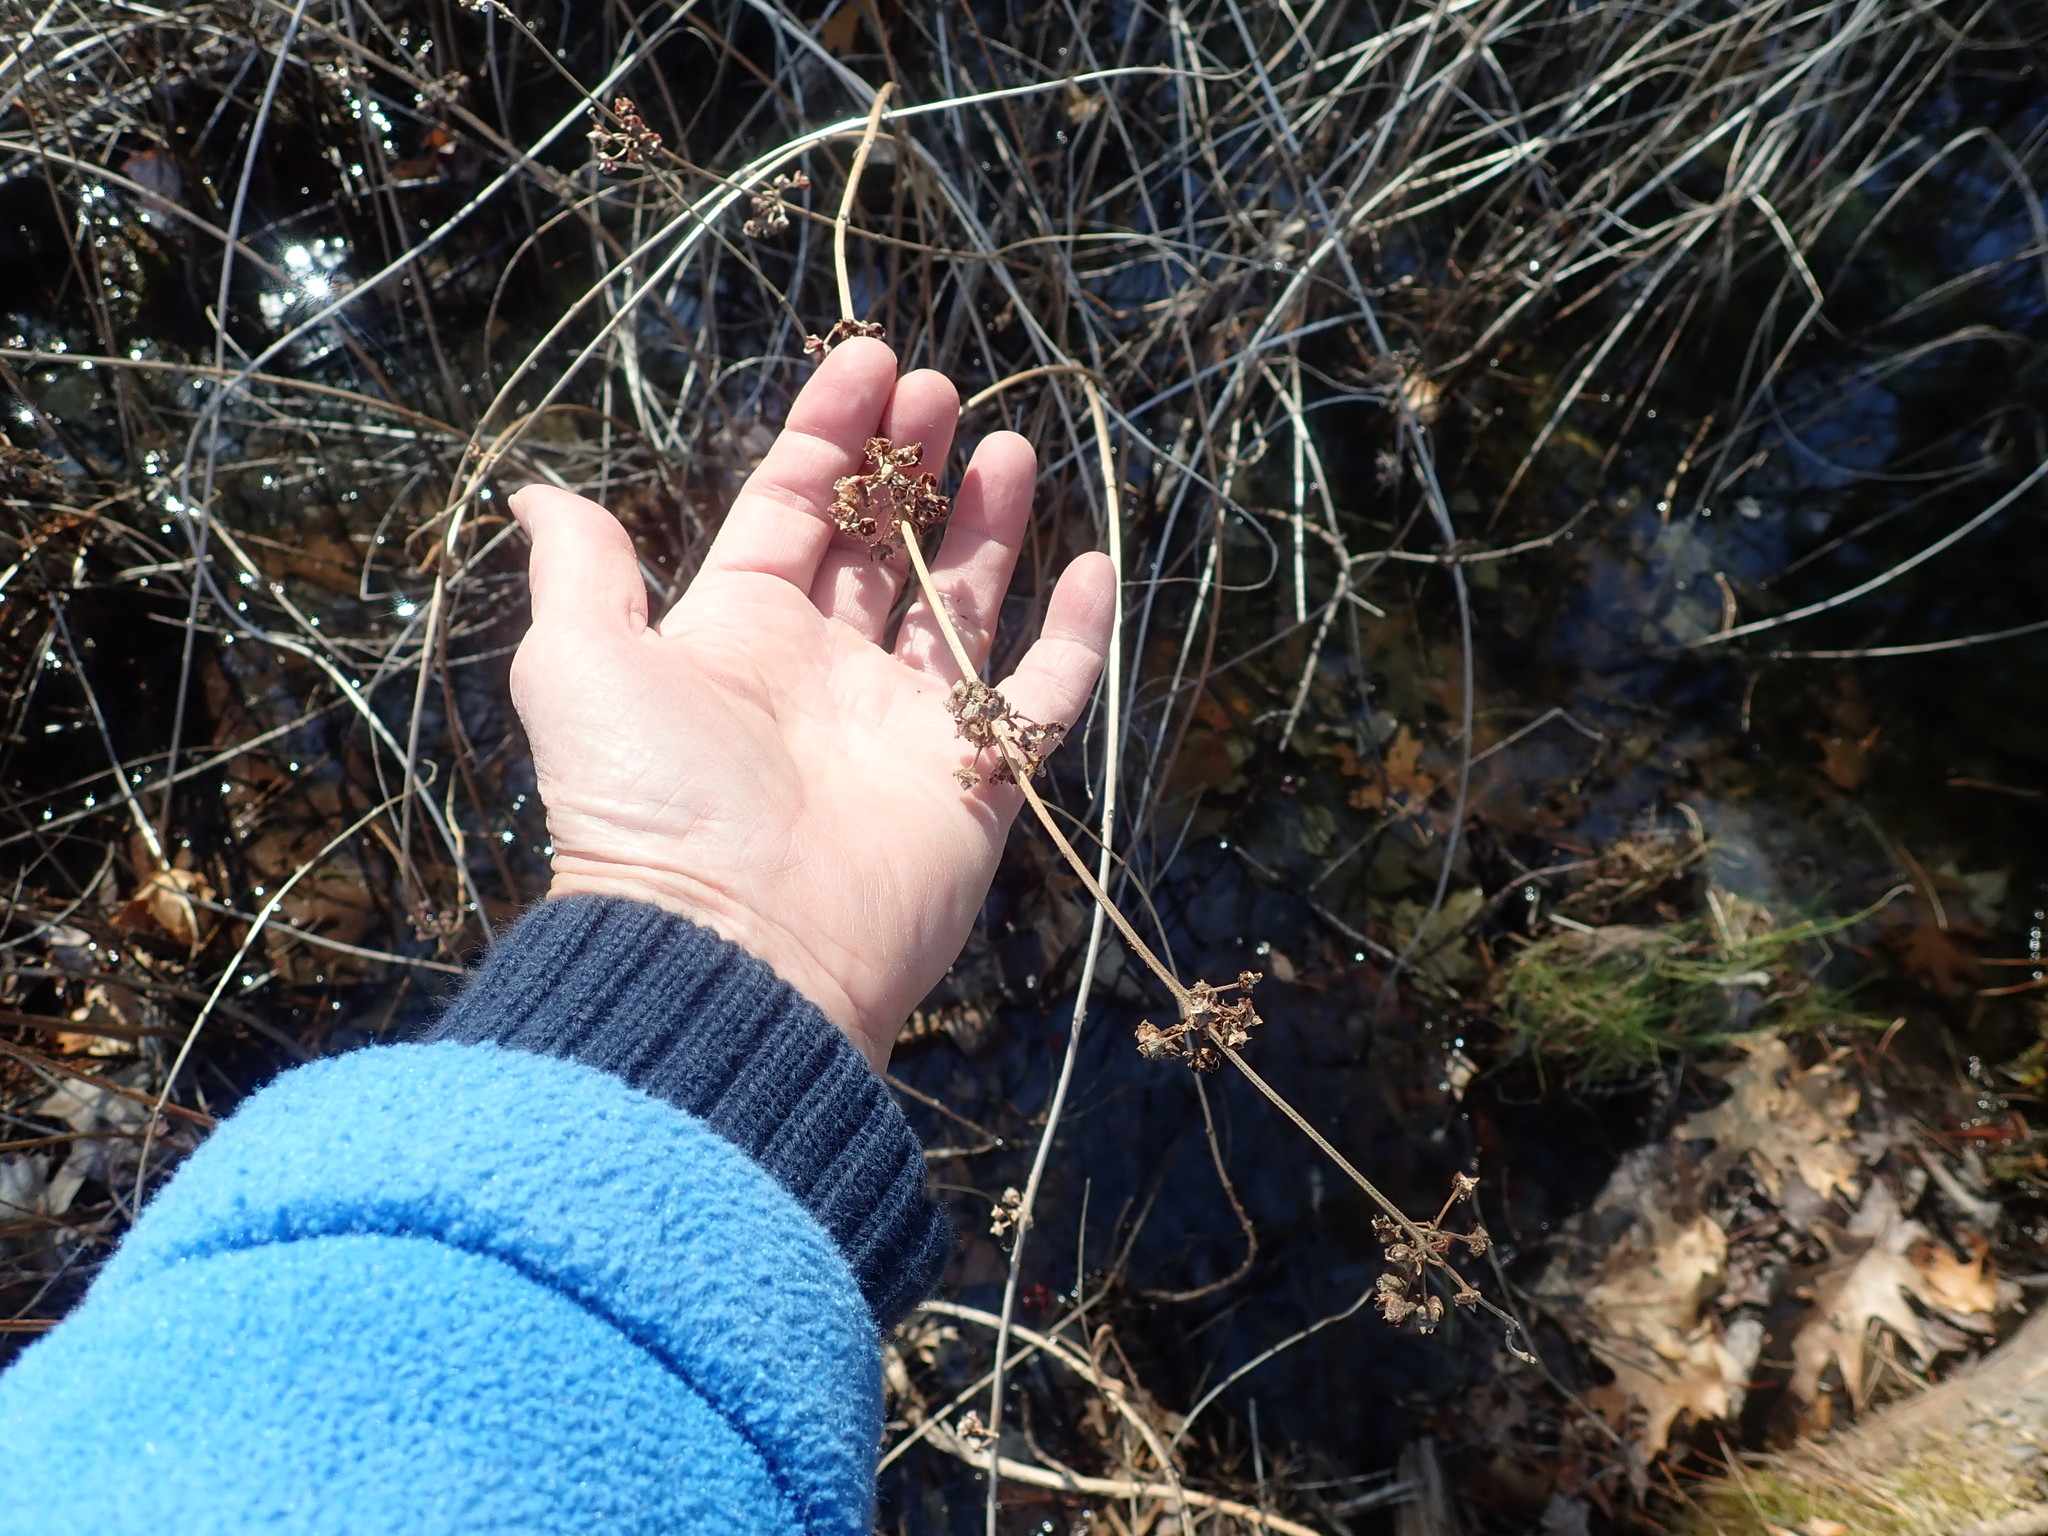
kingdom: Plantae
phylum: Tracheophyta
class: Magnoliopsida
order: Myrtales
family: Lythraceae
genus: Decodon
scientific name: Decodon verticillatus
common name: Hairy swamp loosestrife
